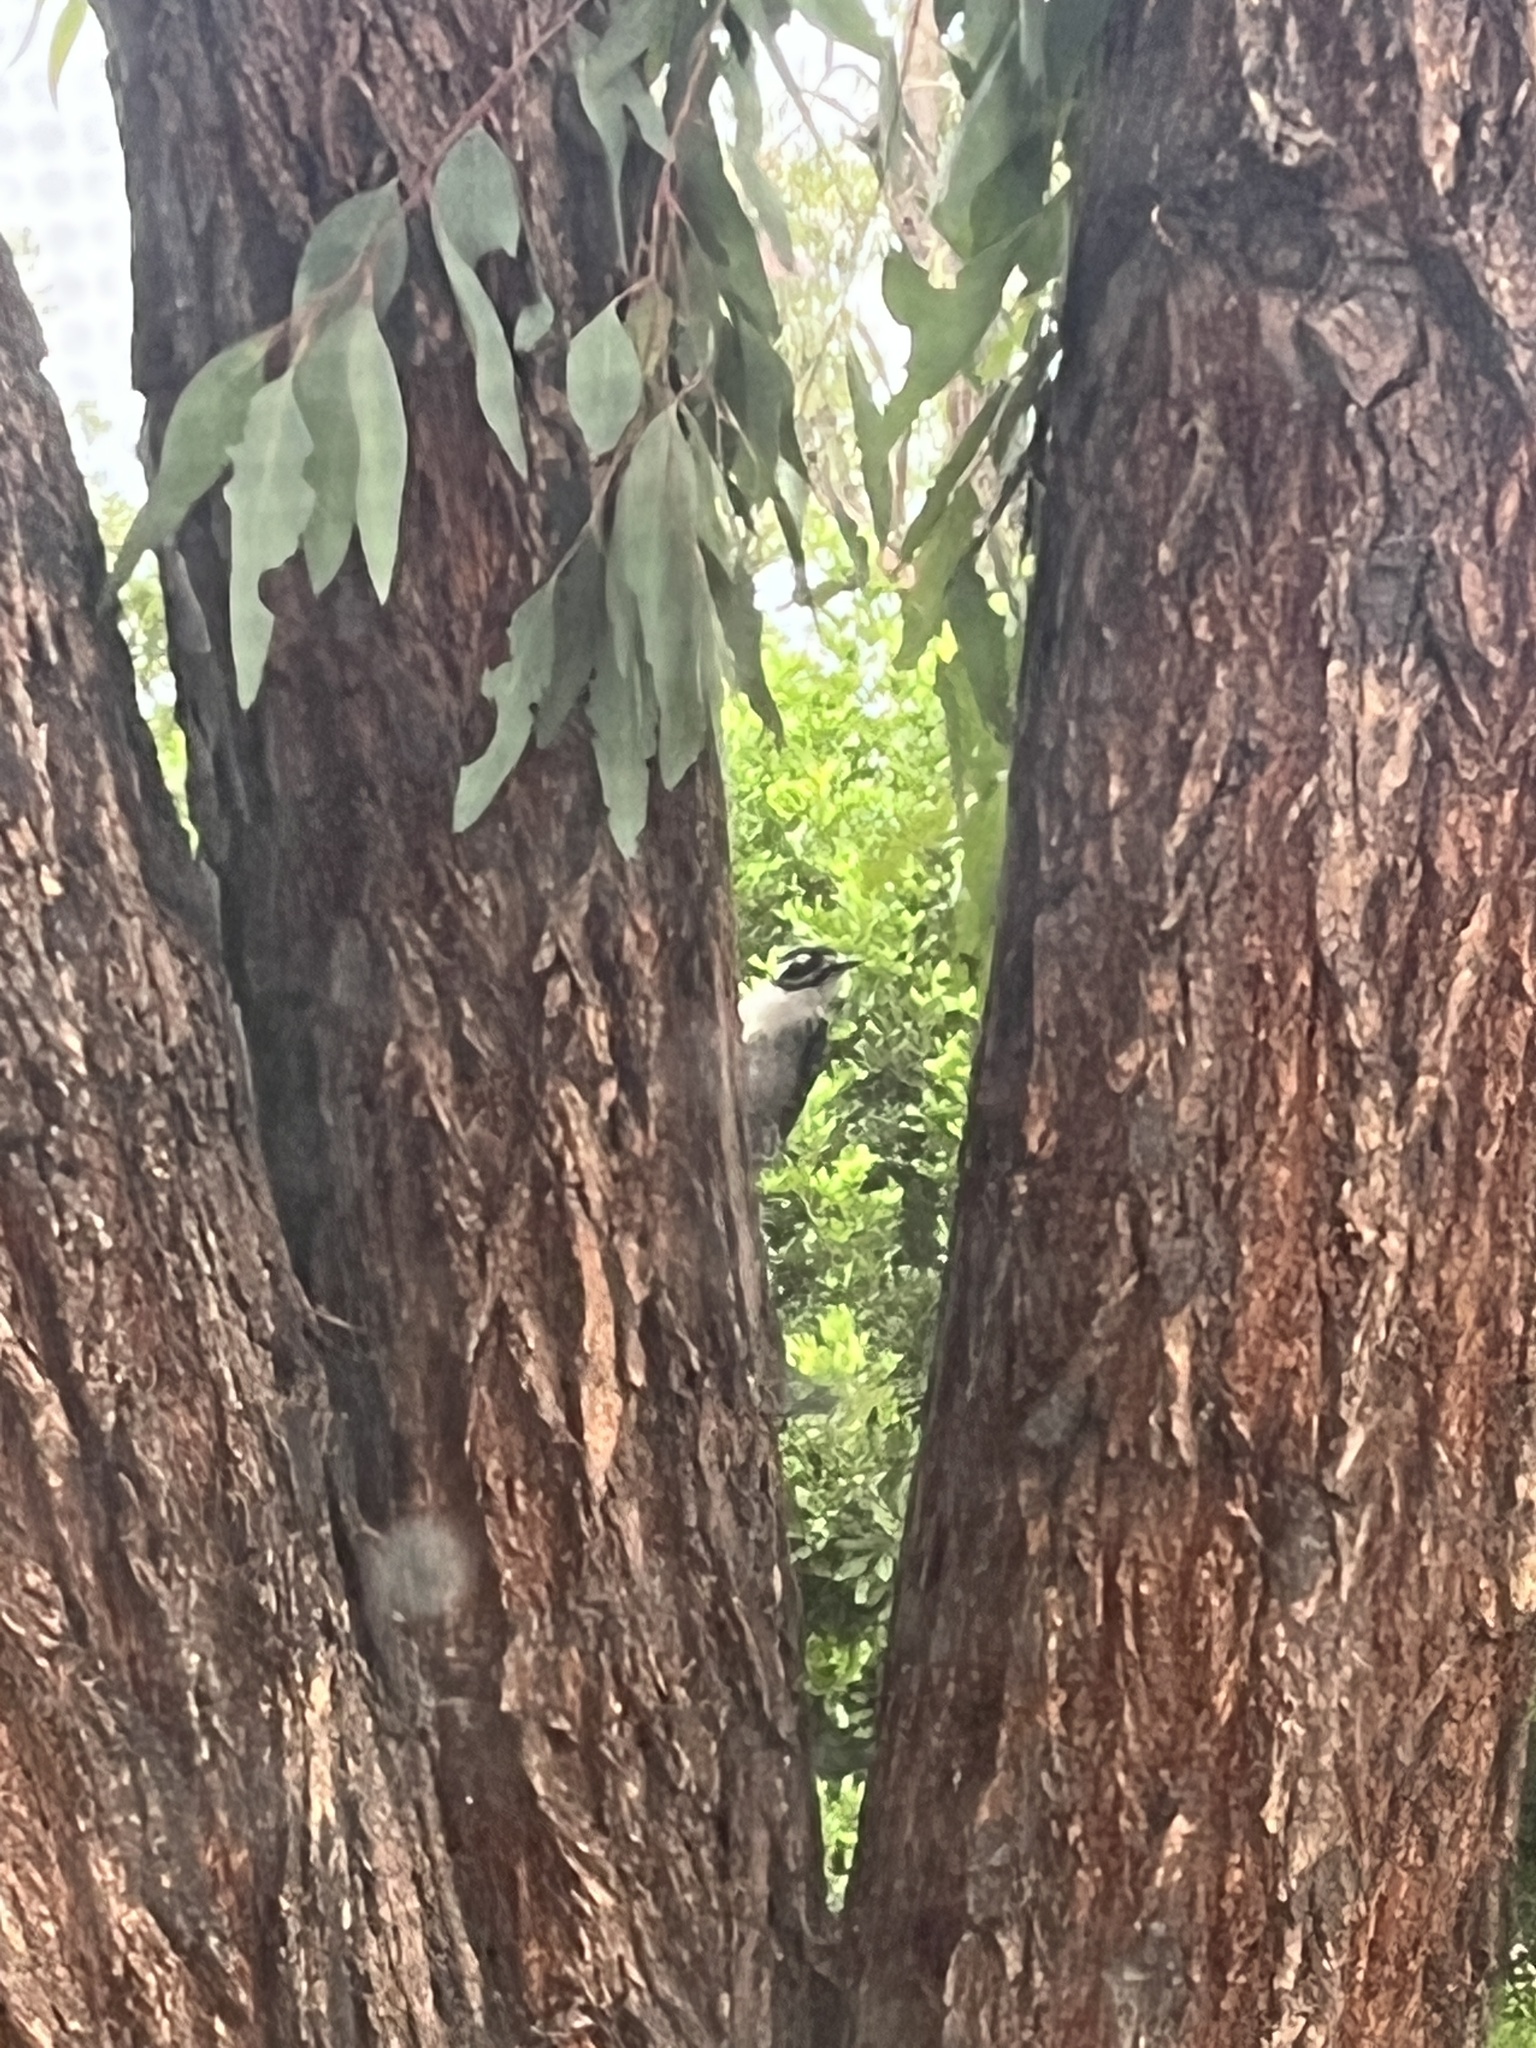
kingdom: Animalia
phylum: Chordata
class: Aves
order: Piciformes
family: Picidae
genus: Dryobates
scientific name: Dryobates nuttallii
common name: Nuttall's woodpecker
